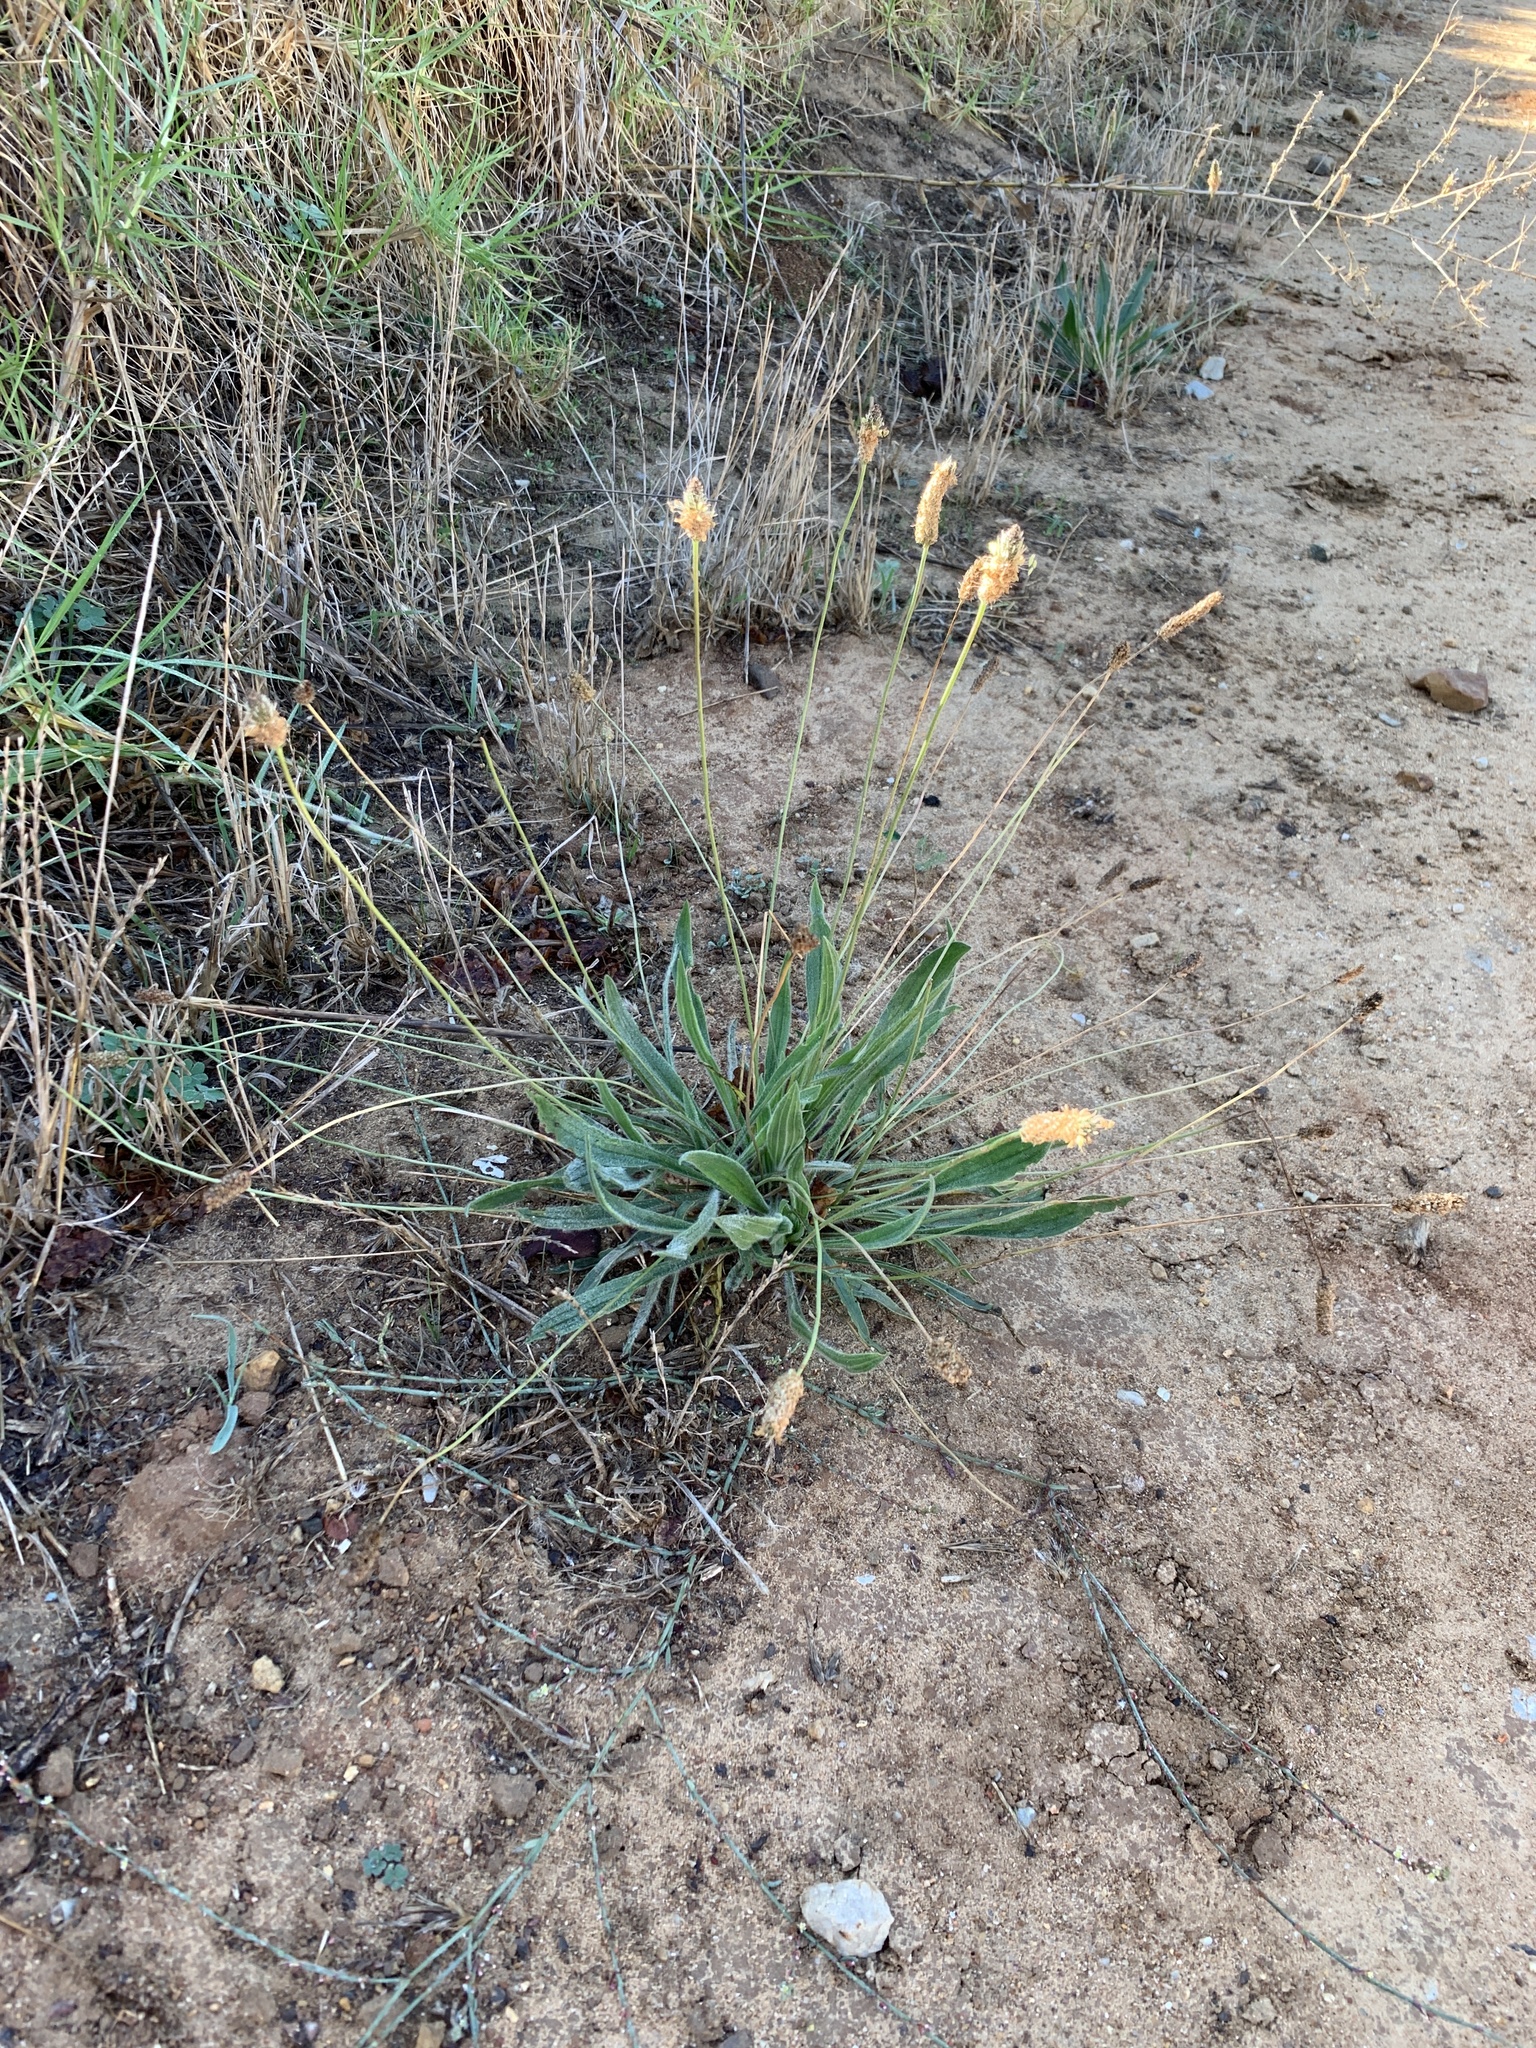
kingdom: Plantae
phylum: Tracheophyta
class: Magnoliopsida
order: Lamiales
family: Plantaginaceae
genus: Plantago
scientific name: Plantago lanceolata
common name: Ribwort plantain
